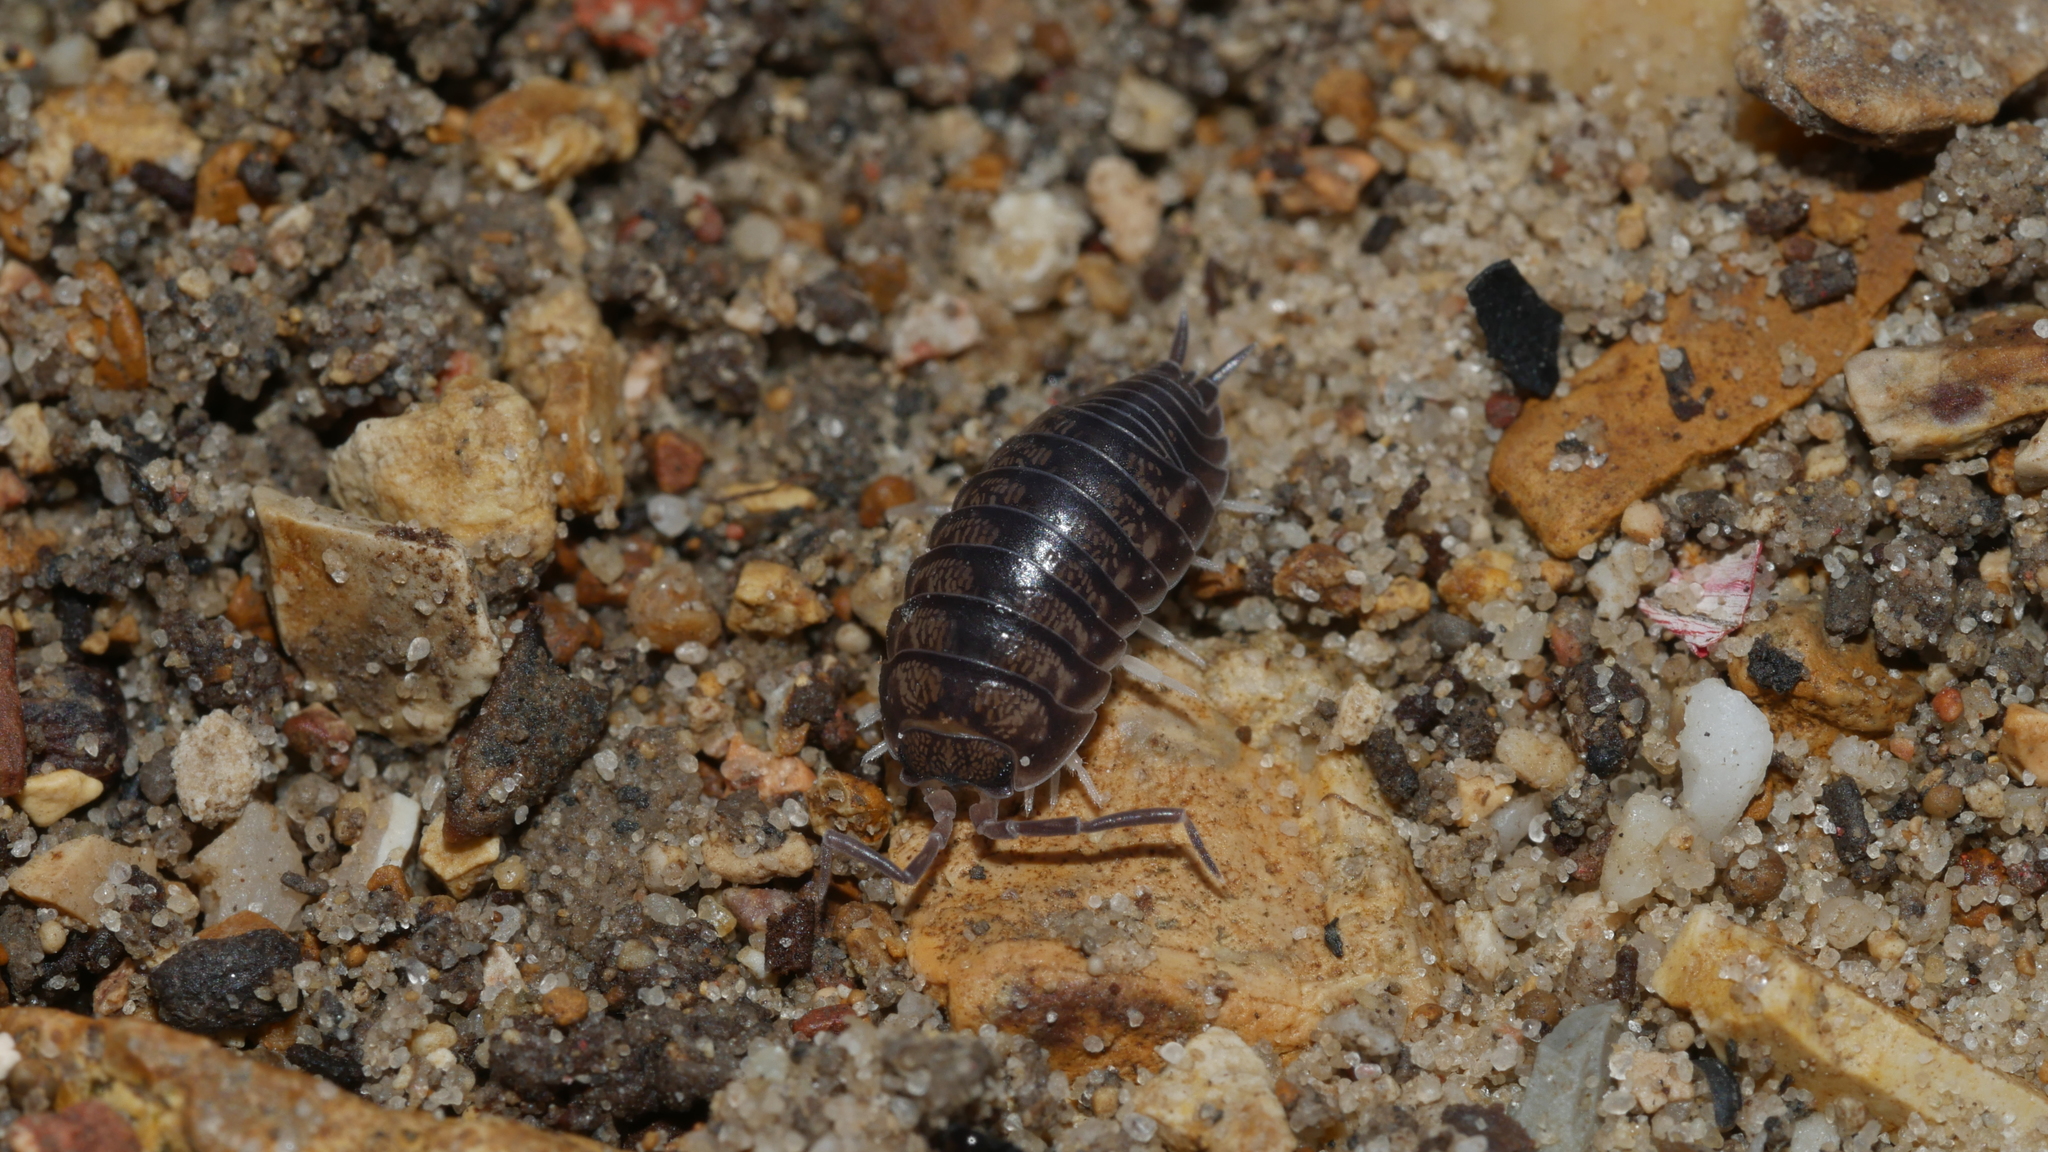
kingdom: Animalia
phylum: Arthropoda
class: Malacostraca
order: Isopoda
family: Cylisticidae
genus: Cylisticus
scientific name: Cylisticus convexus
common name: Curly woodlouse
